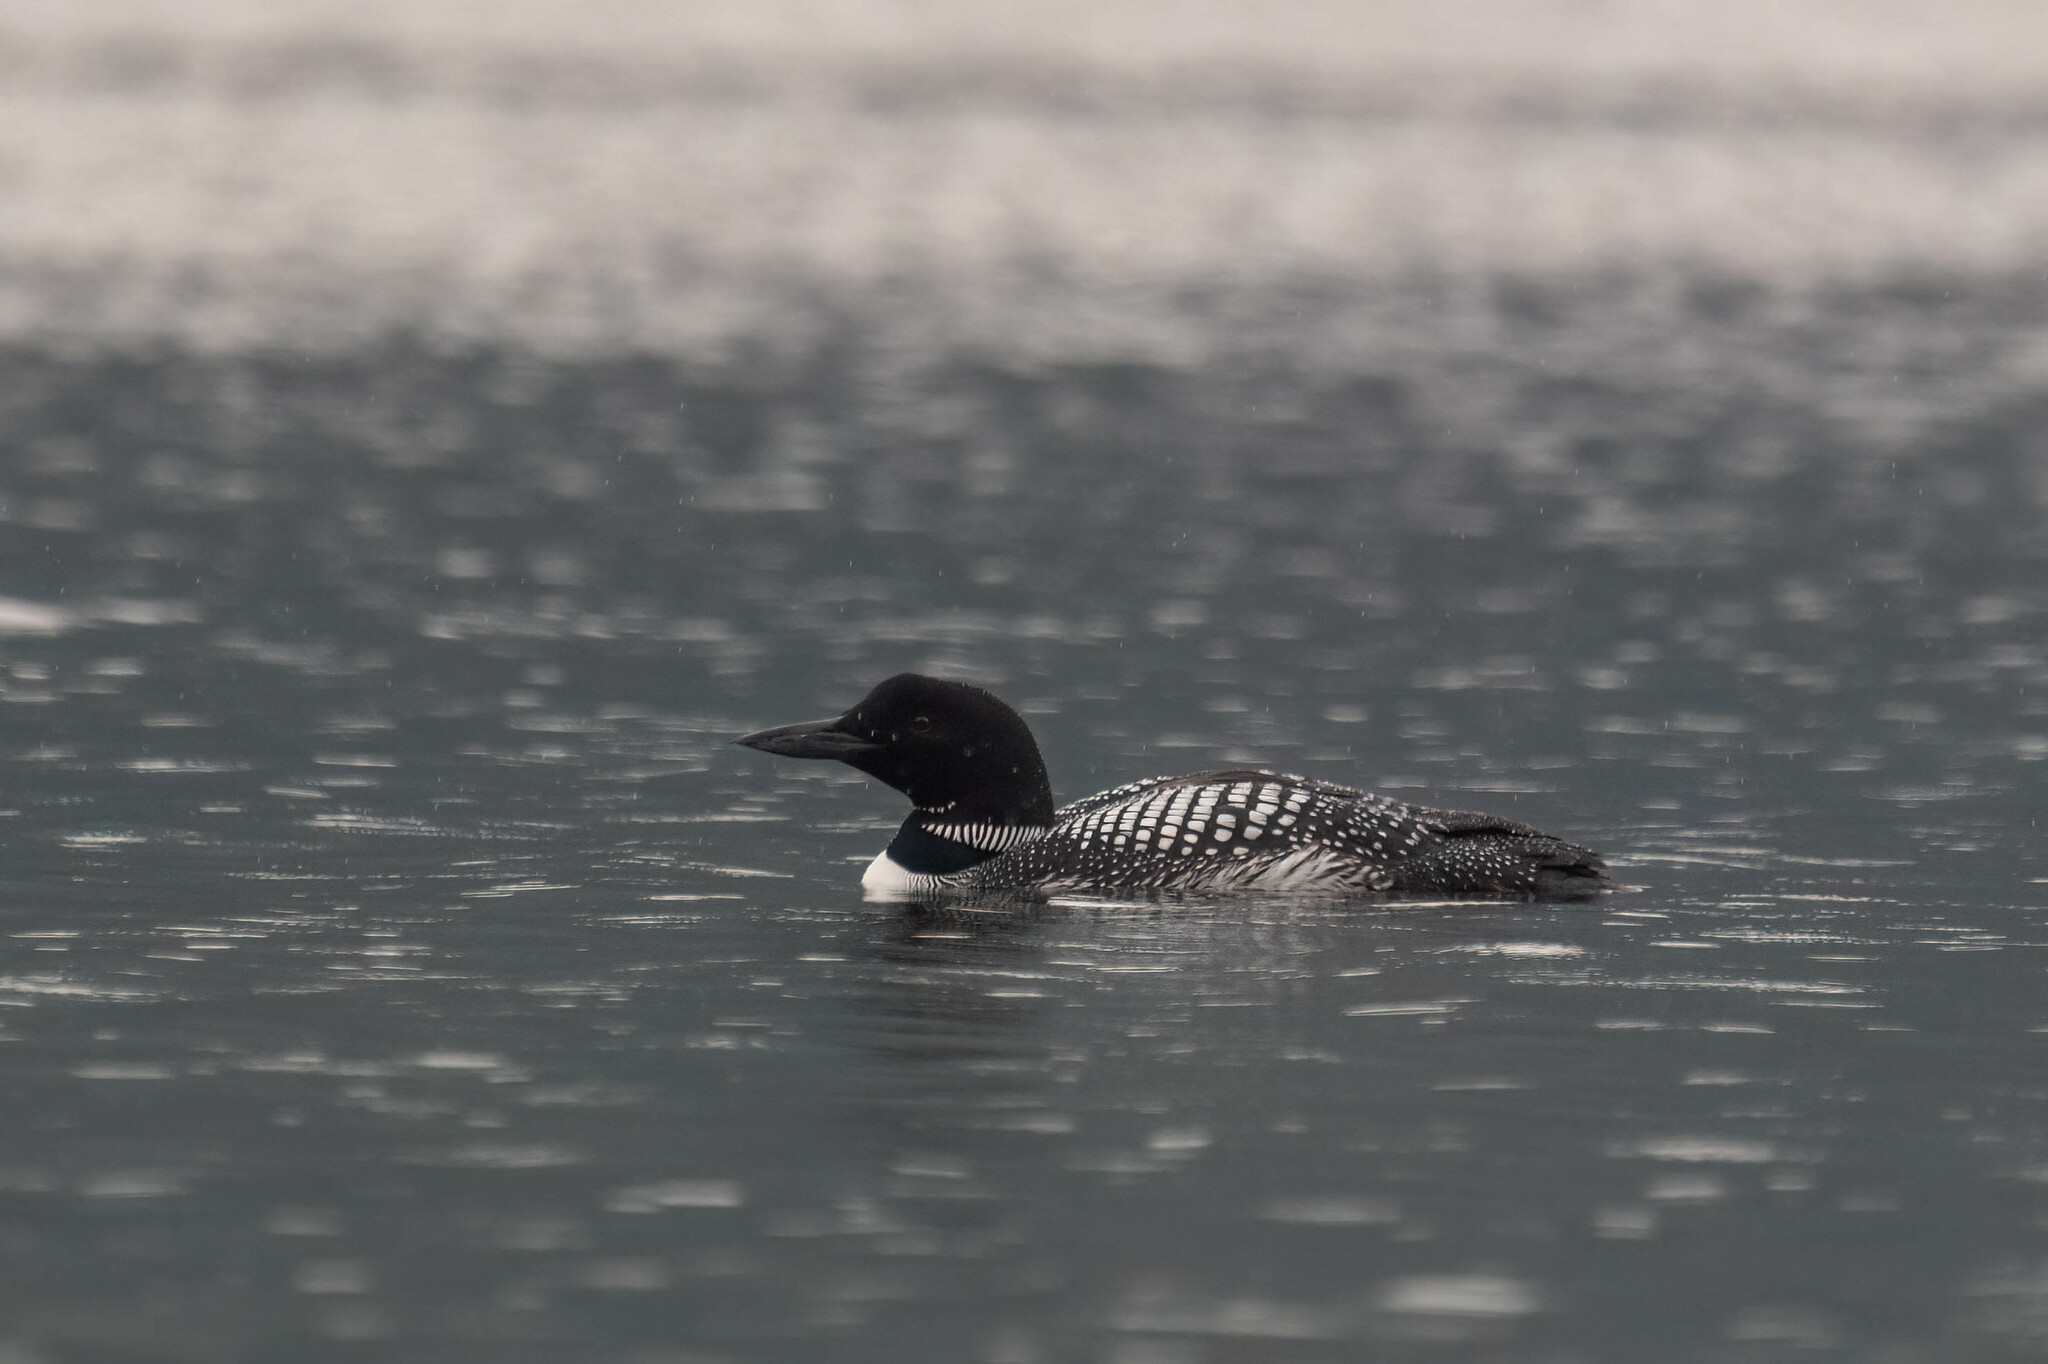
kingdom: Animalia
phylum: Chordata
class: Aves
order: Gaviiformes
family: Gaviidae
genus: Gavia
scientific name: Gavia immer
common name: Common loon
